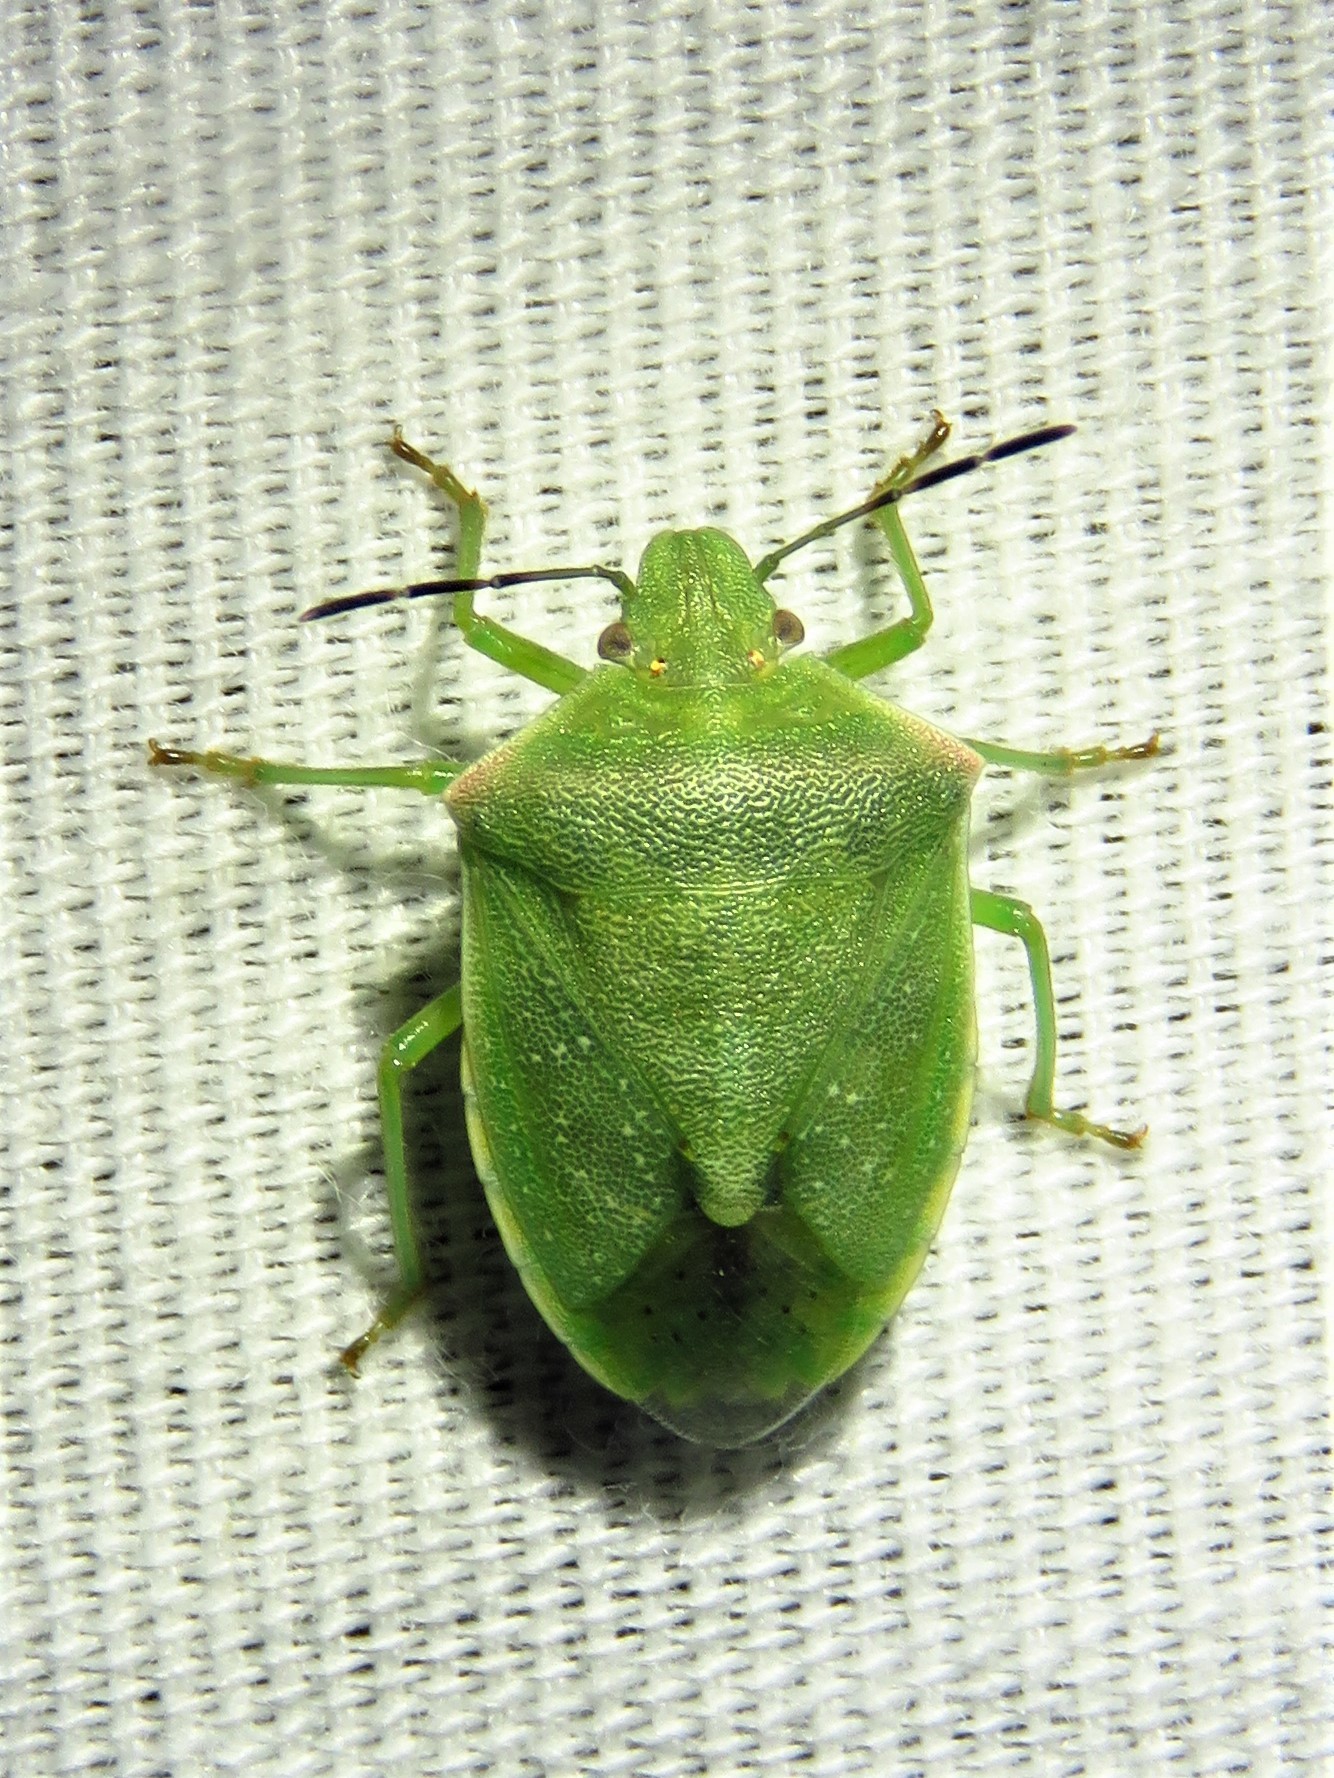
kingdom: Animalia
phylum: Arthropoda
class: Insecta
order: Hemiptera
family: Pentatomidae
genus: Thyanta
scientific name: Thyanta custator
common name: Stink bug
